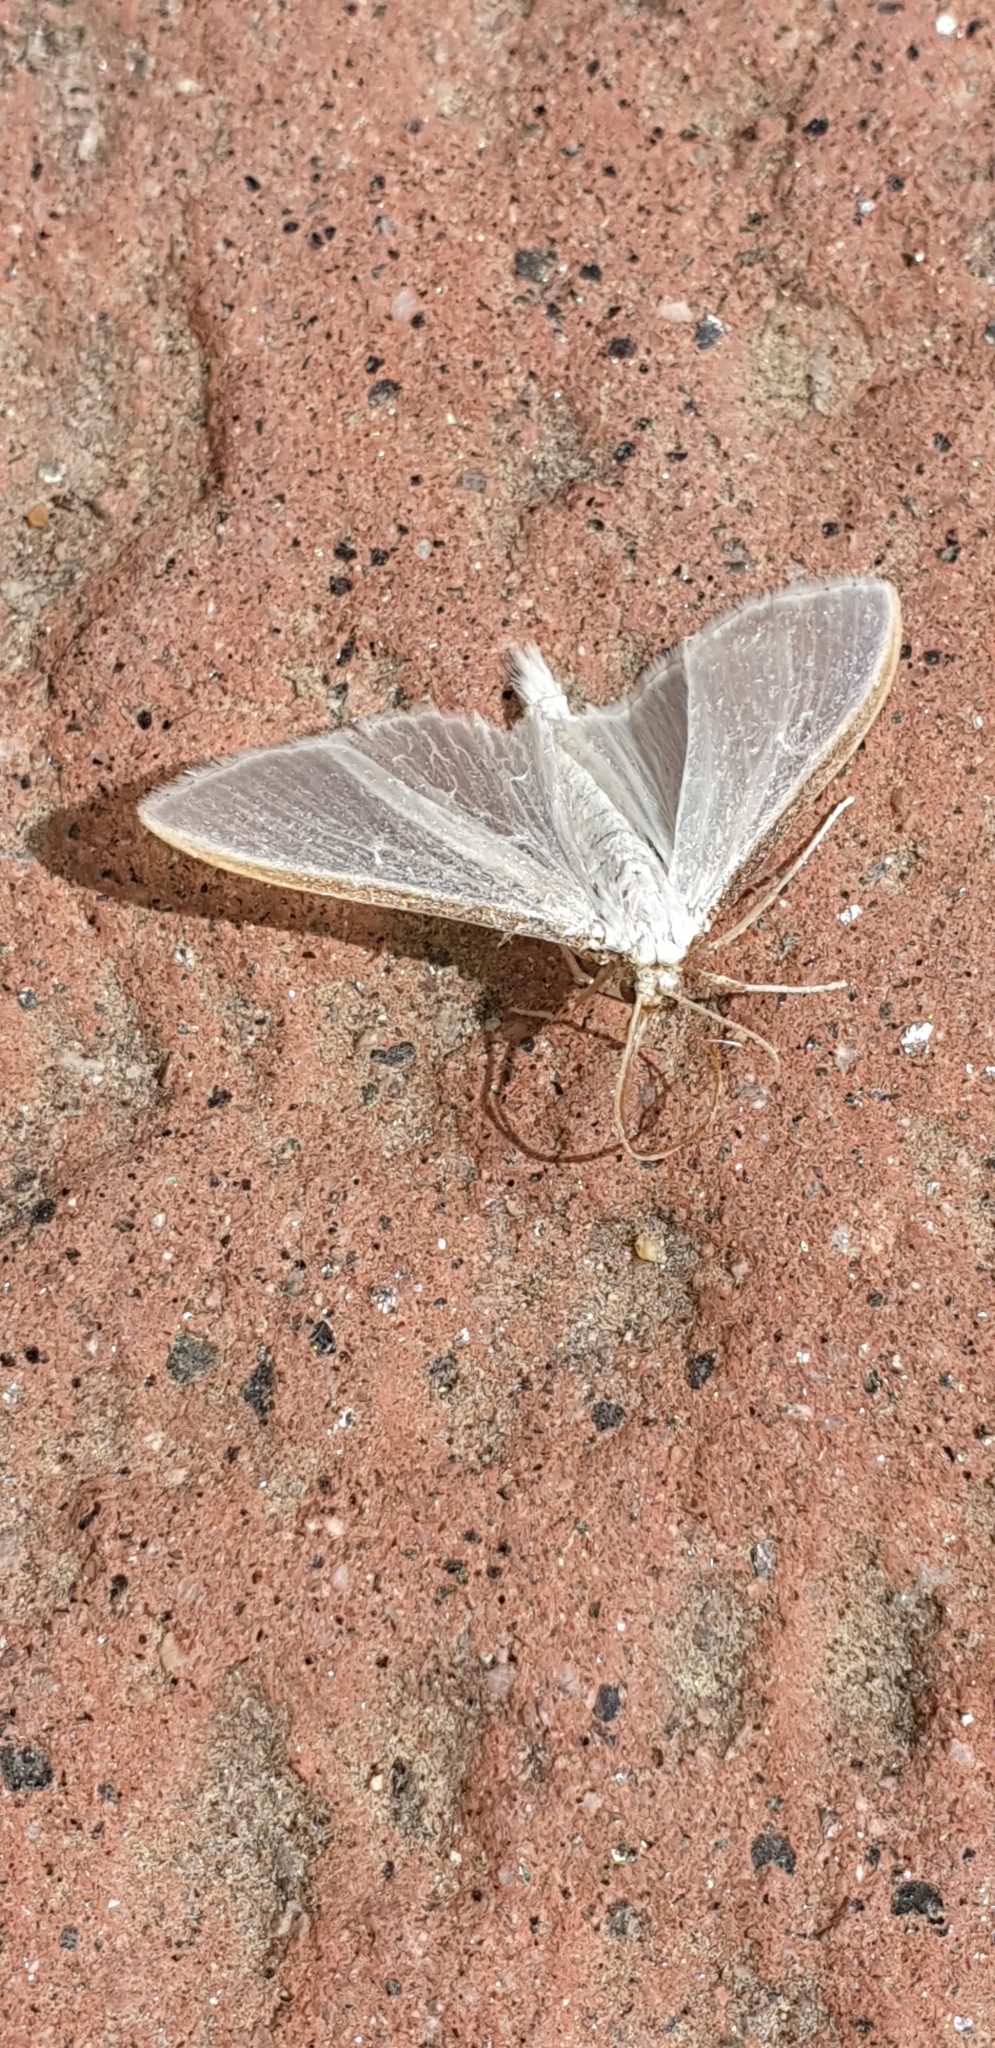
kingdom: Animalia
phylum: Arthropoda
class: Insecta
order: Lepidoptera
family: Crambidae
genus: Palpita
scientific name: Palpita vitrealis
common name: Olive-tree pearl
